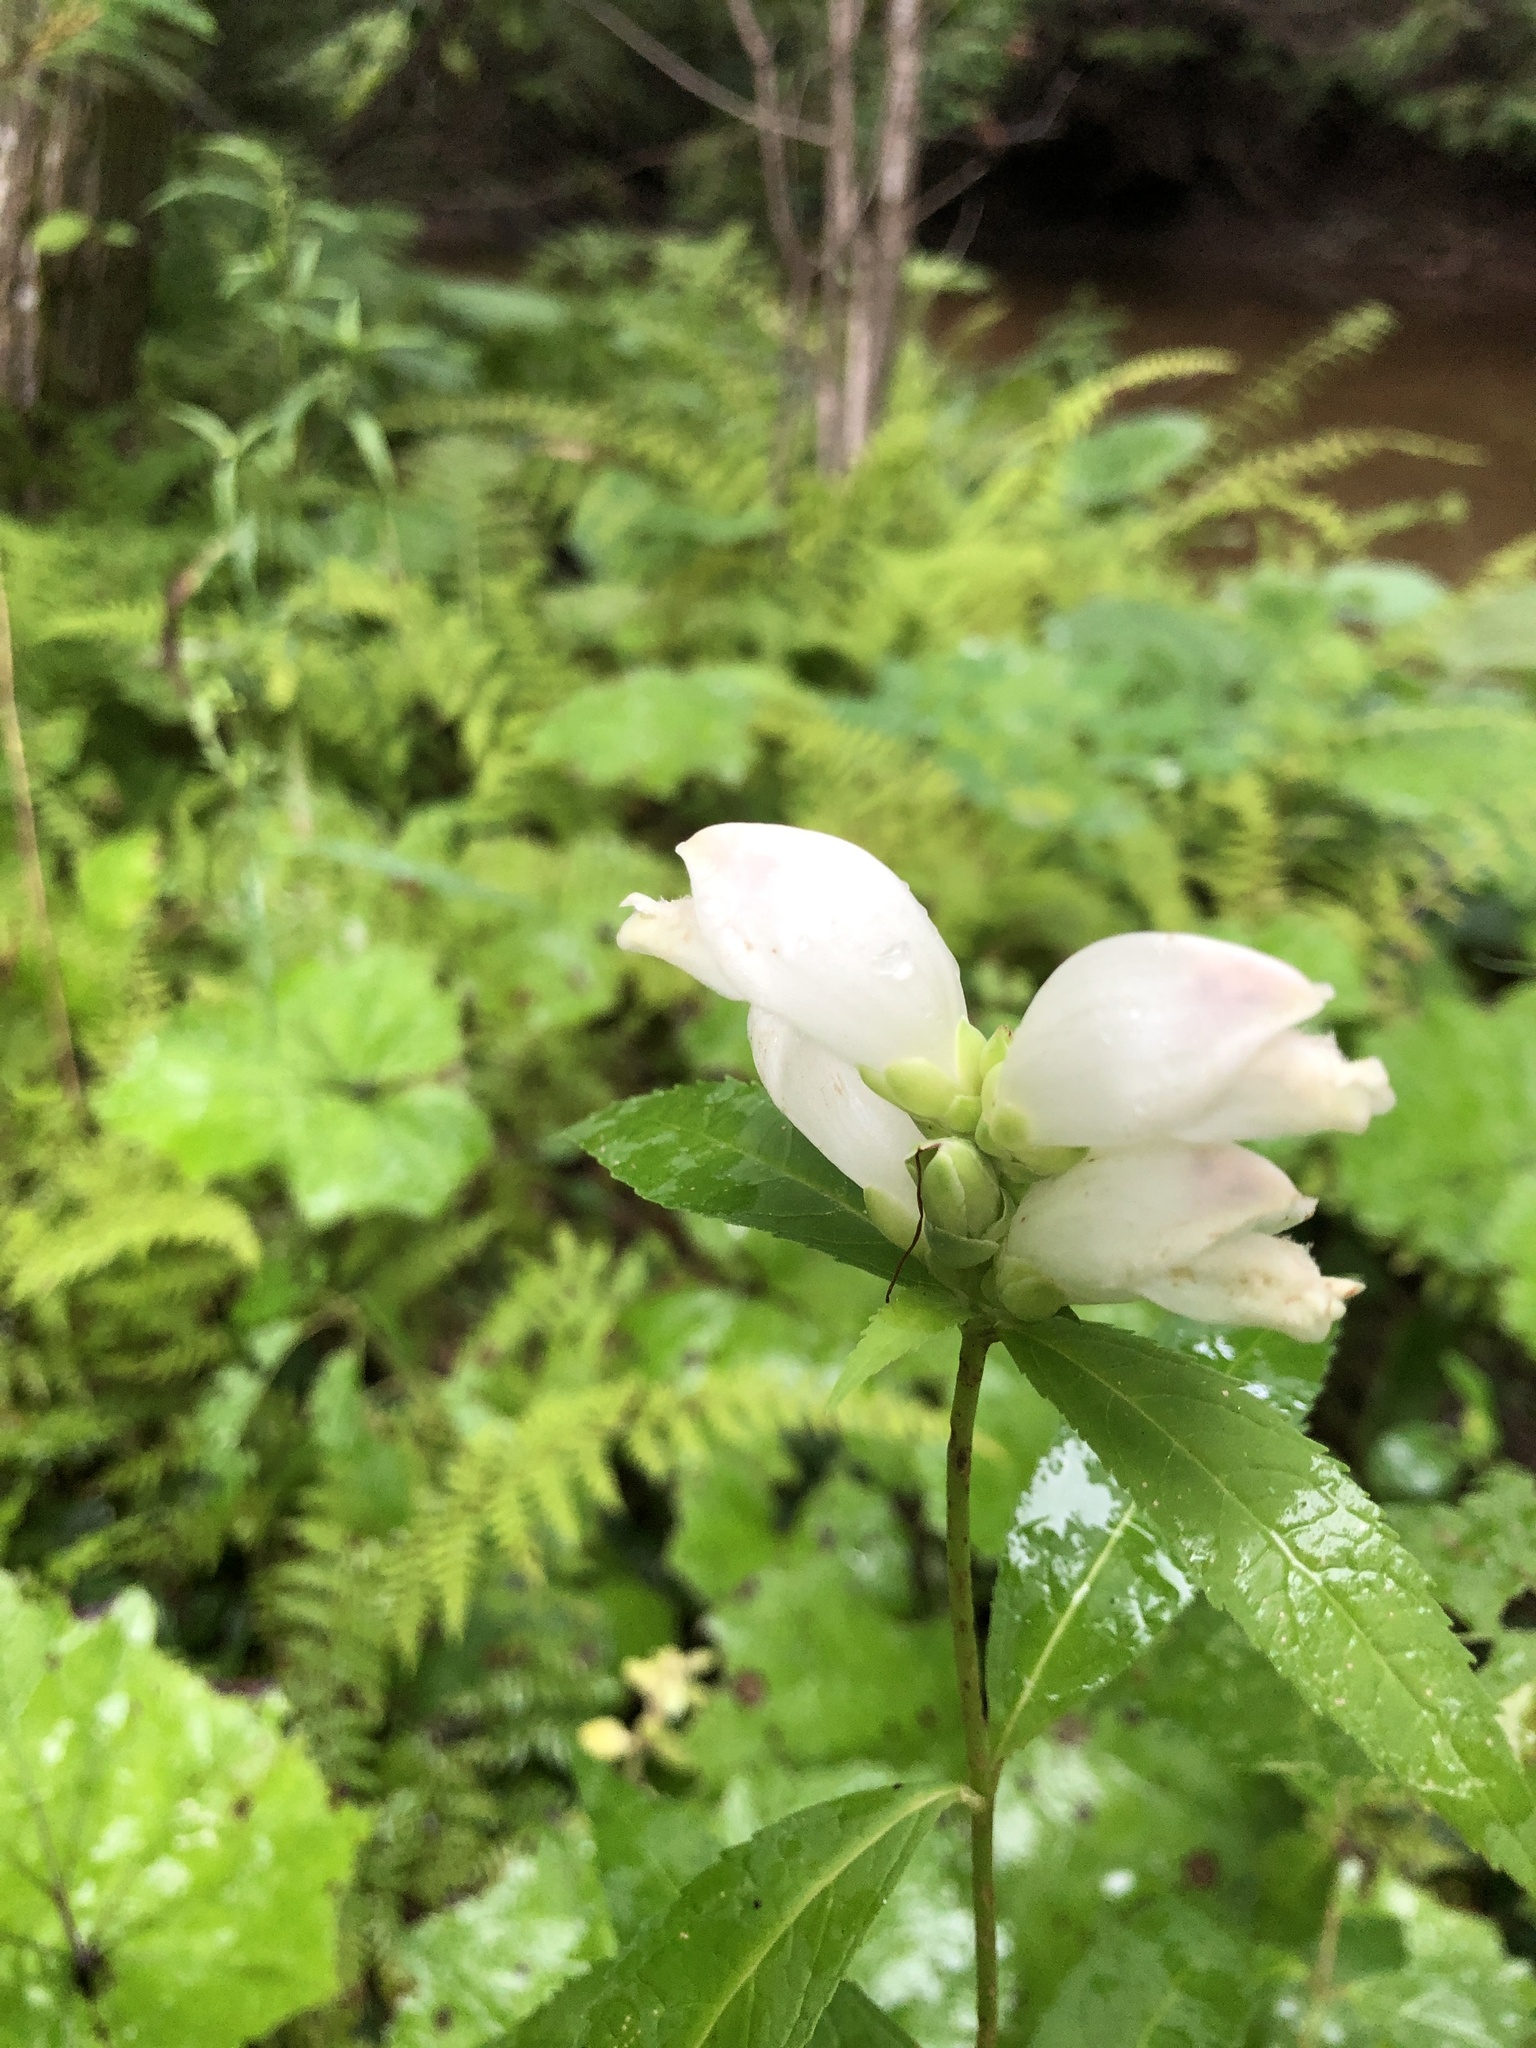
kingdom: Plantae
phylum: Tracheophyta
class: Magnoliopsida
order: Lamiales
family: Plantaginaceae
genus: Chelone
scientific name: Chelone glabra
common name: Snakehead
